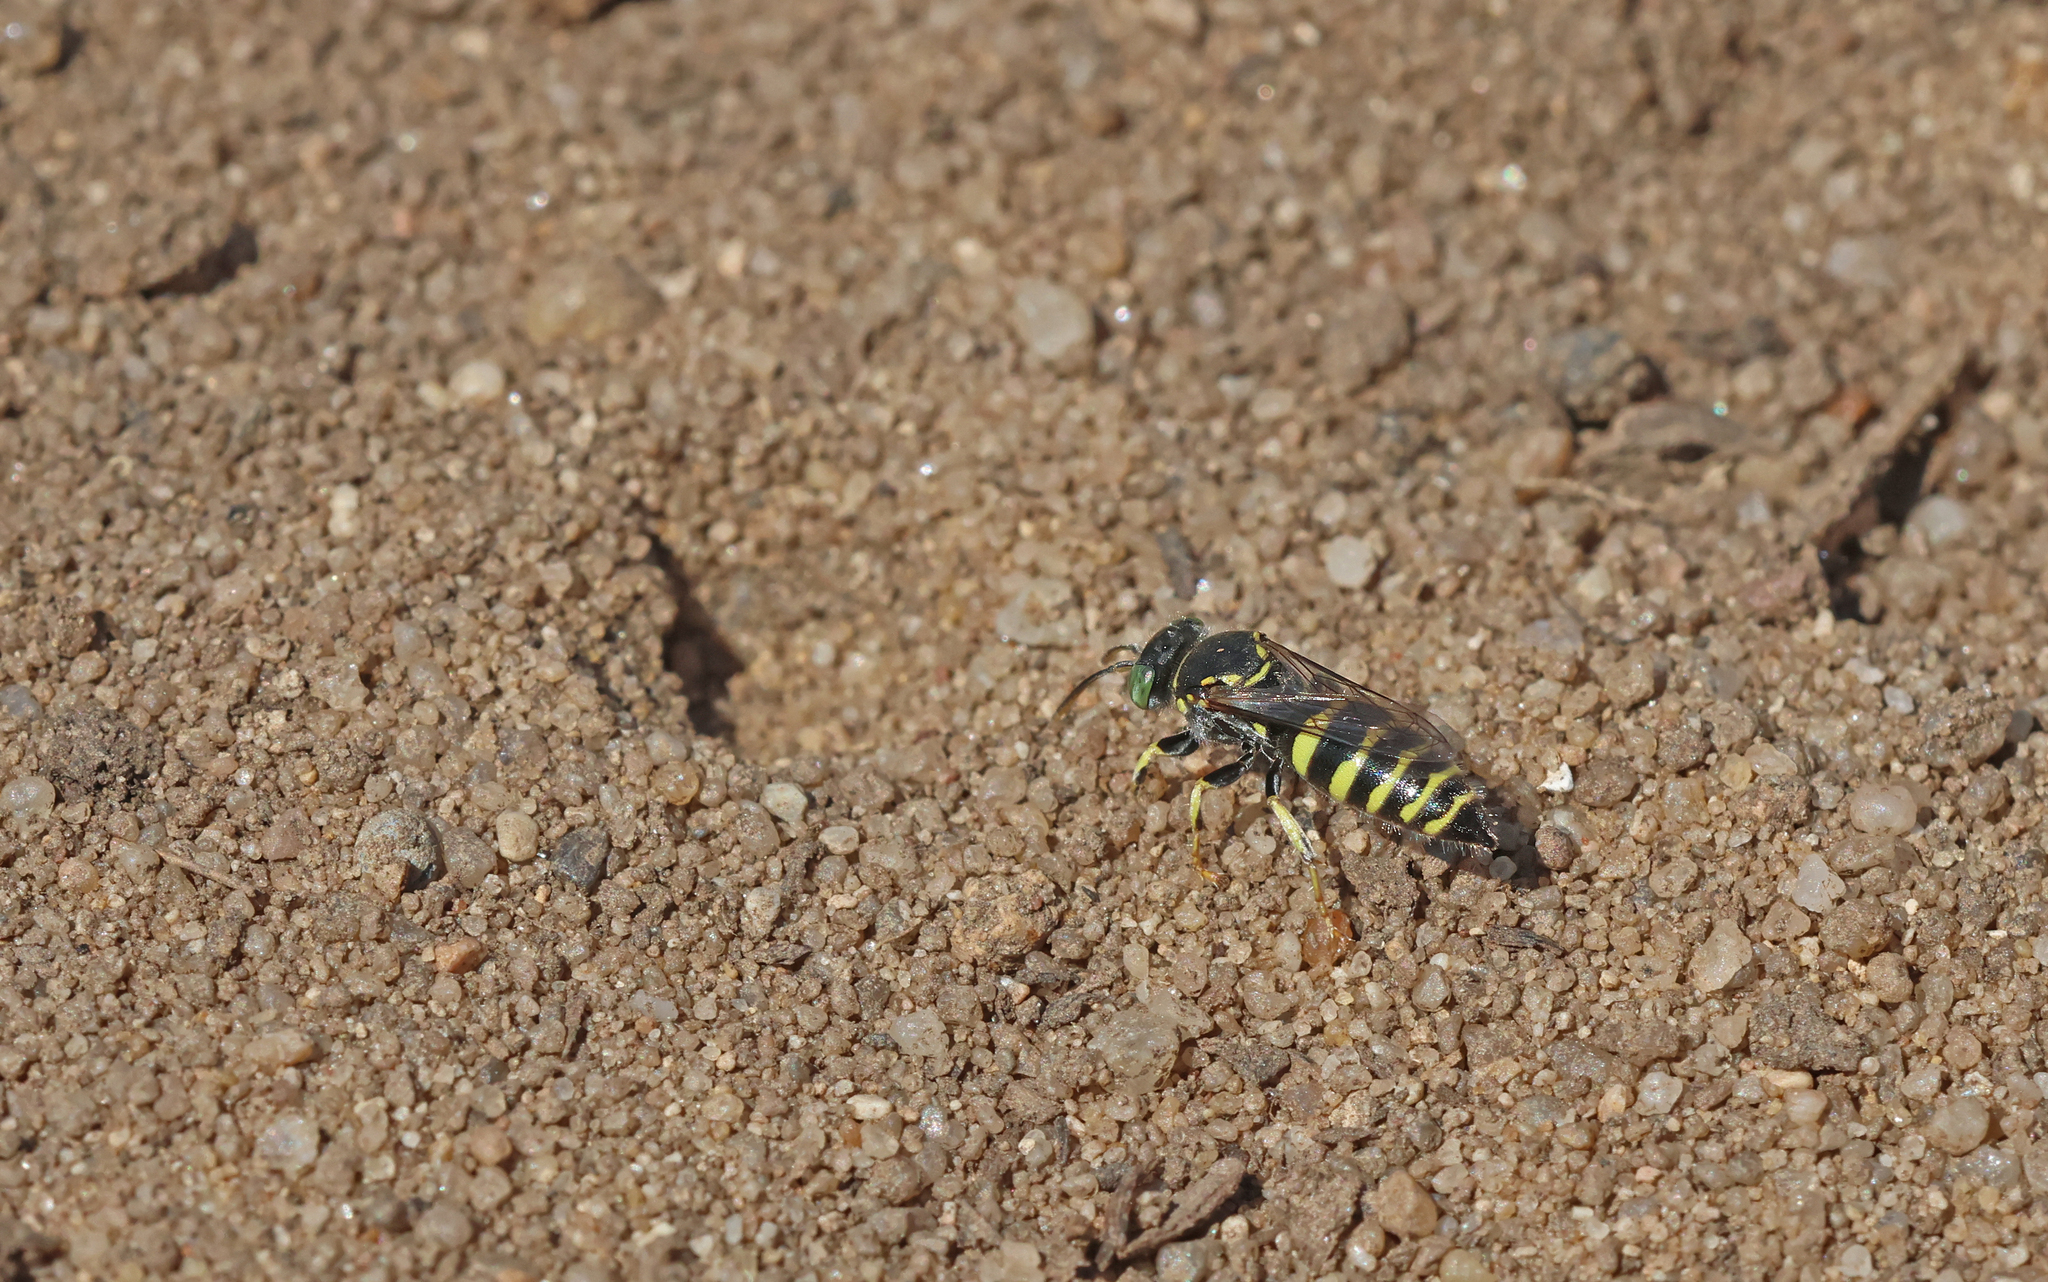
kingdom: Animalia
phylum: Arthropoda
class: Insecta
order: Hymenoptera
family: Crabronidae
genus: Bembecinus
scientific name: Bembecinus tridens
